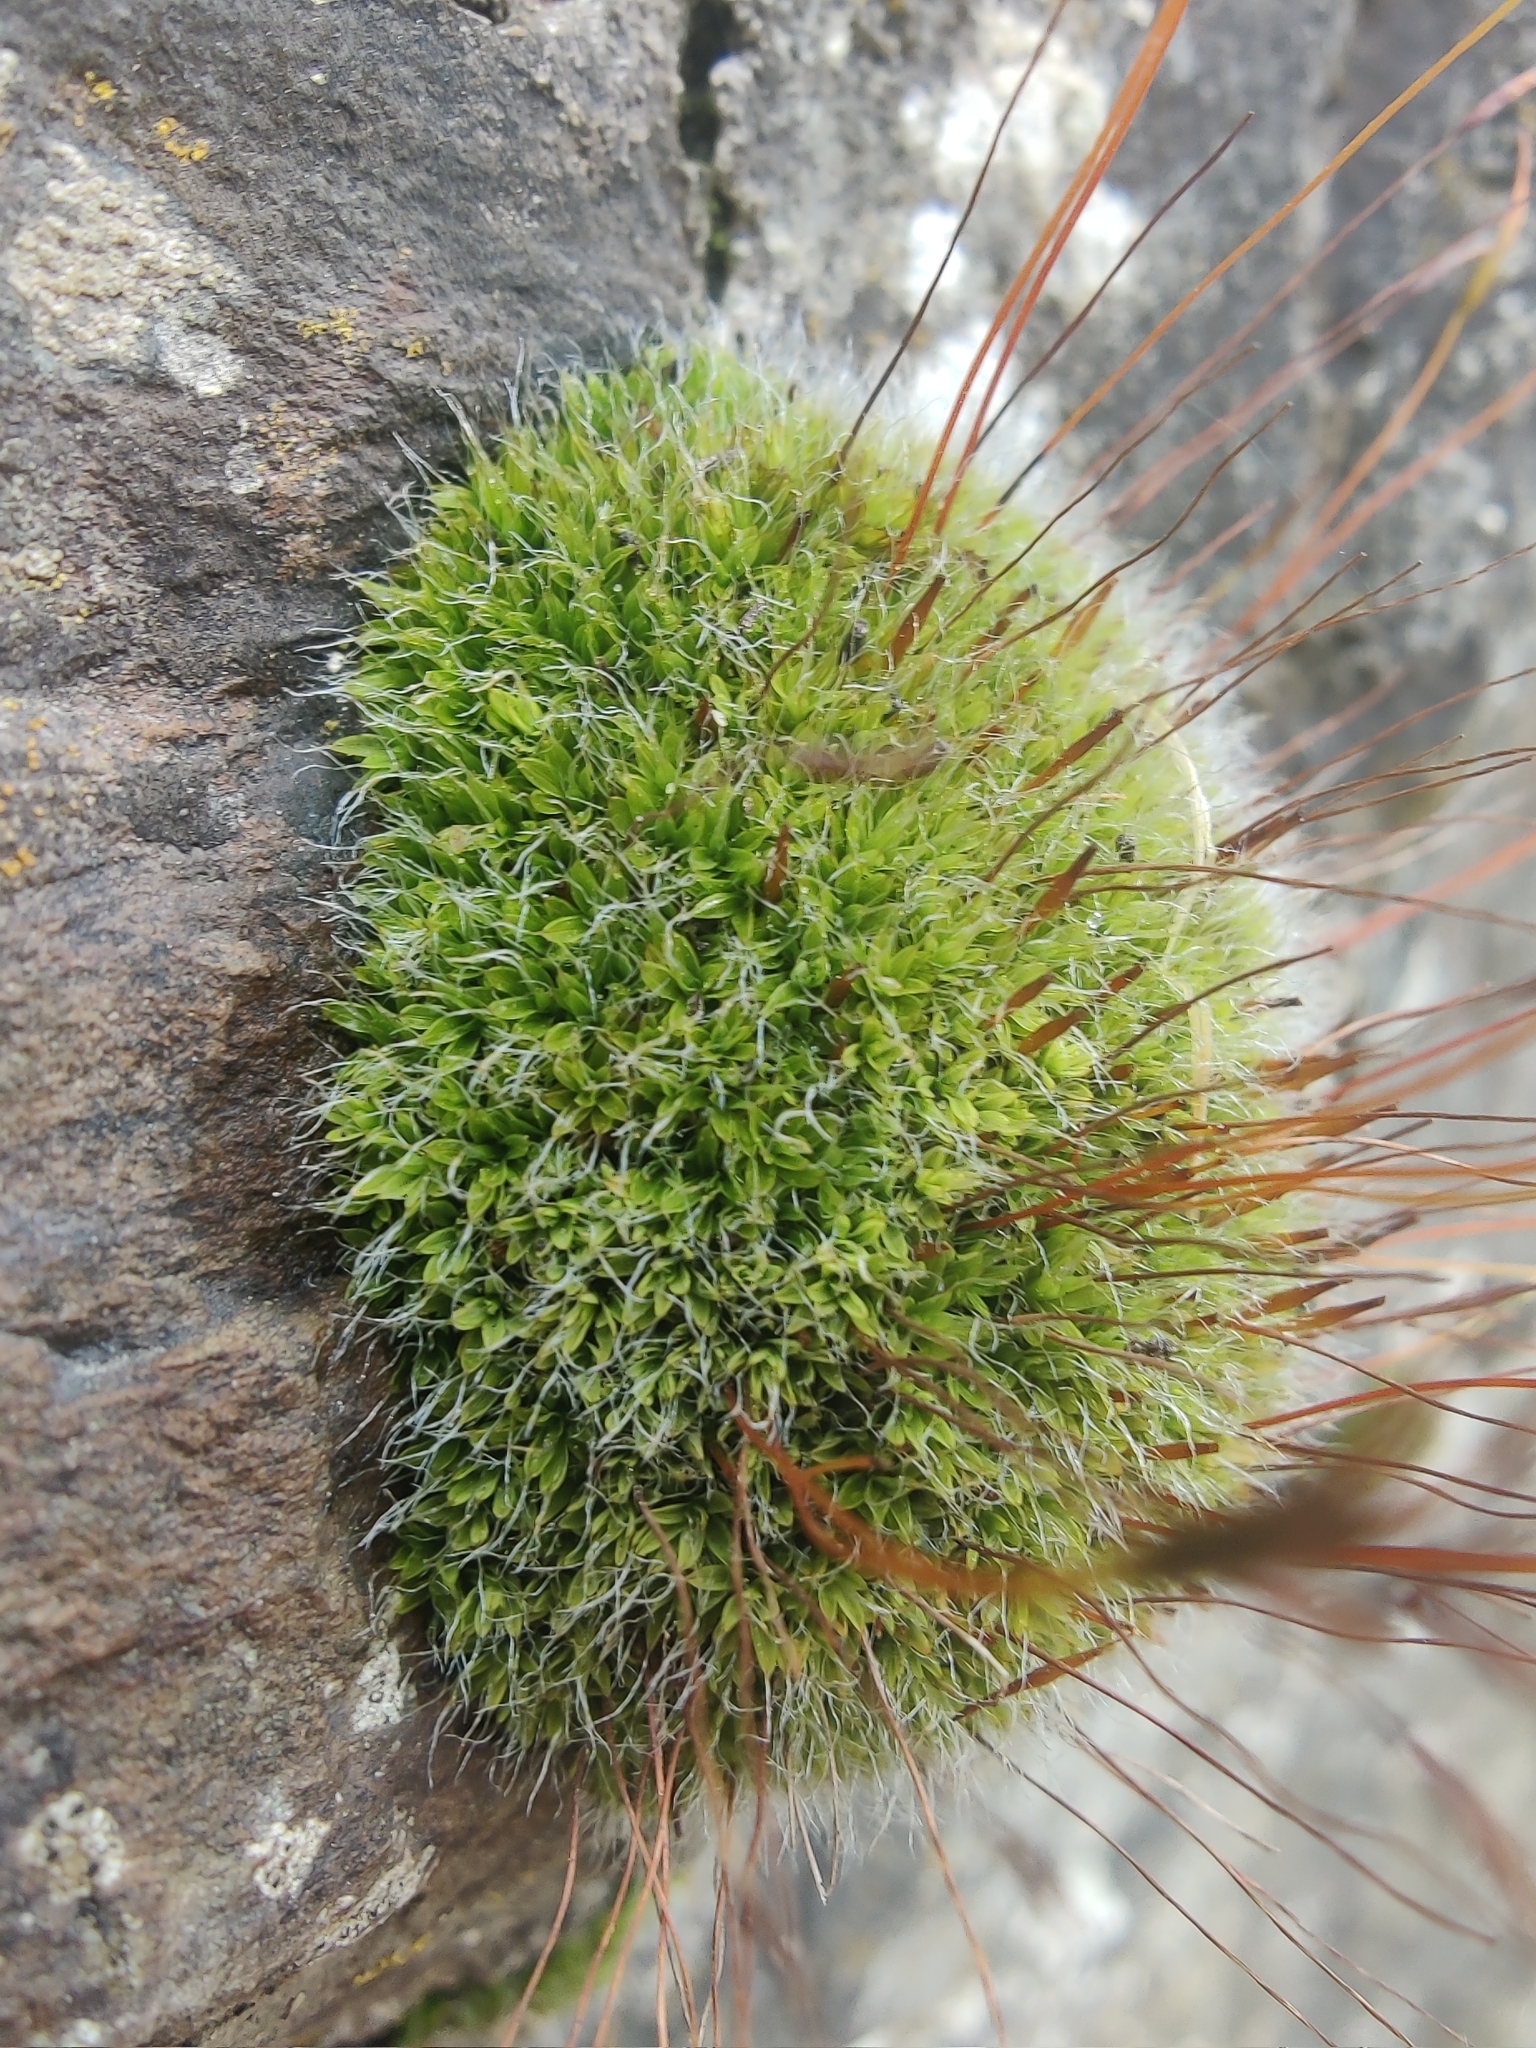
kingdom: Plantae
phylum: Bryophyta
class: Bryopsida
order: Pottiales
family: Pottiaceae
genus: Tortula
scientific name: Tortula muralis
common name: Wall screw-moss
